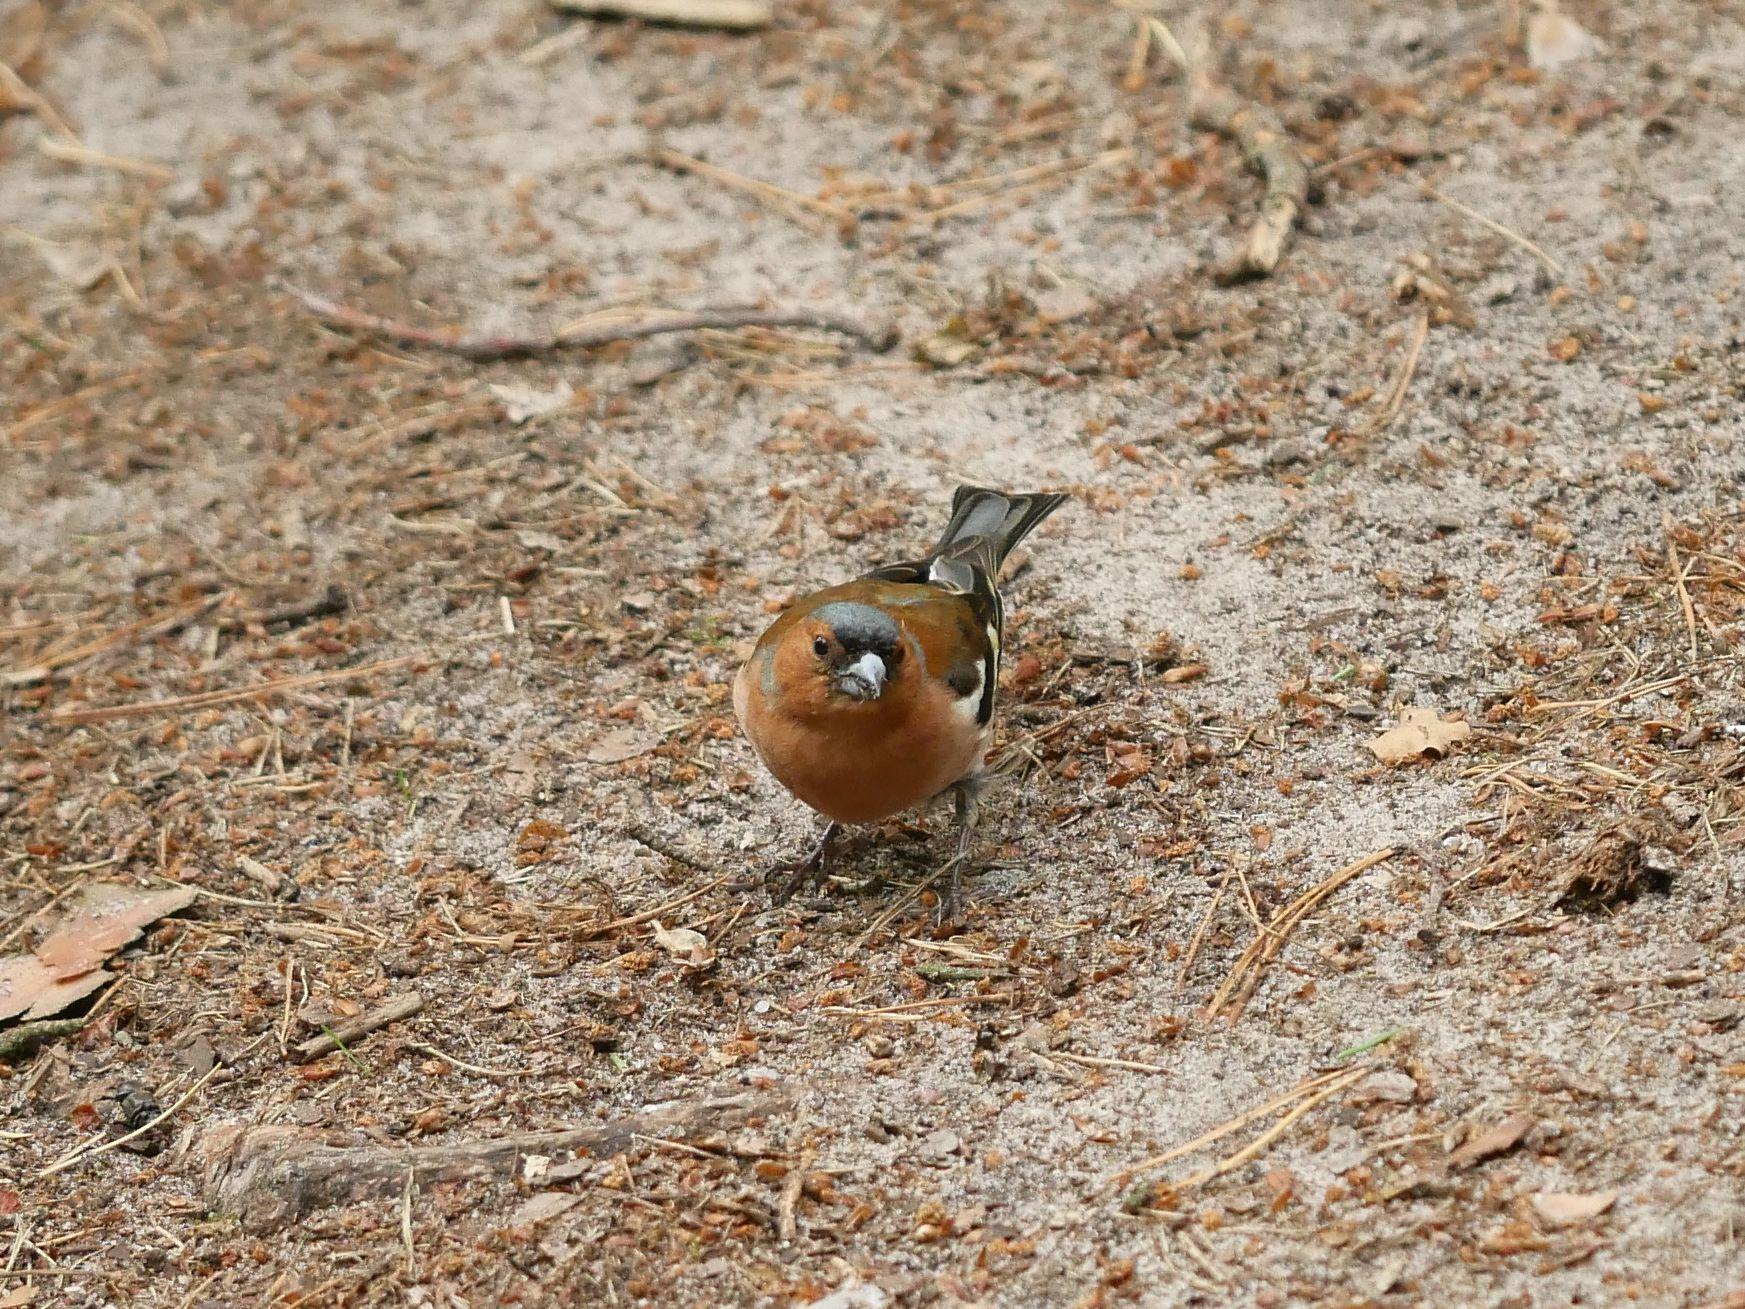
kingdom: Animalia
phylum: Chordata
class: Aves
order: Passeriformes
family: Fringillidae
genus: Fringilla
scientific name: Fringilla coelebs
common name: Common chaffinch
